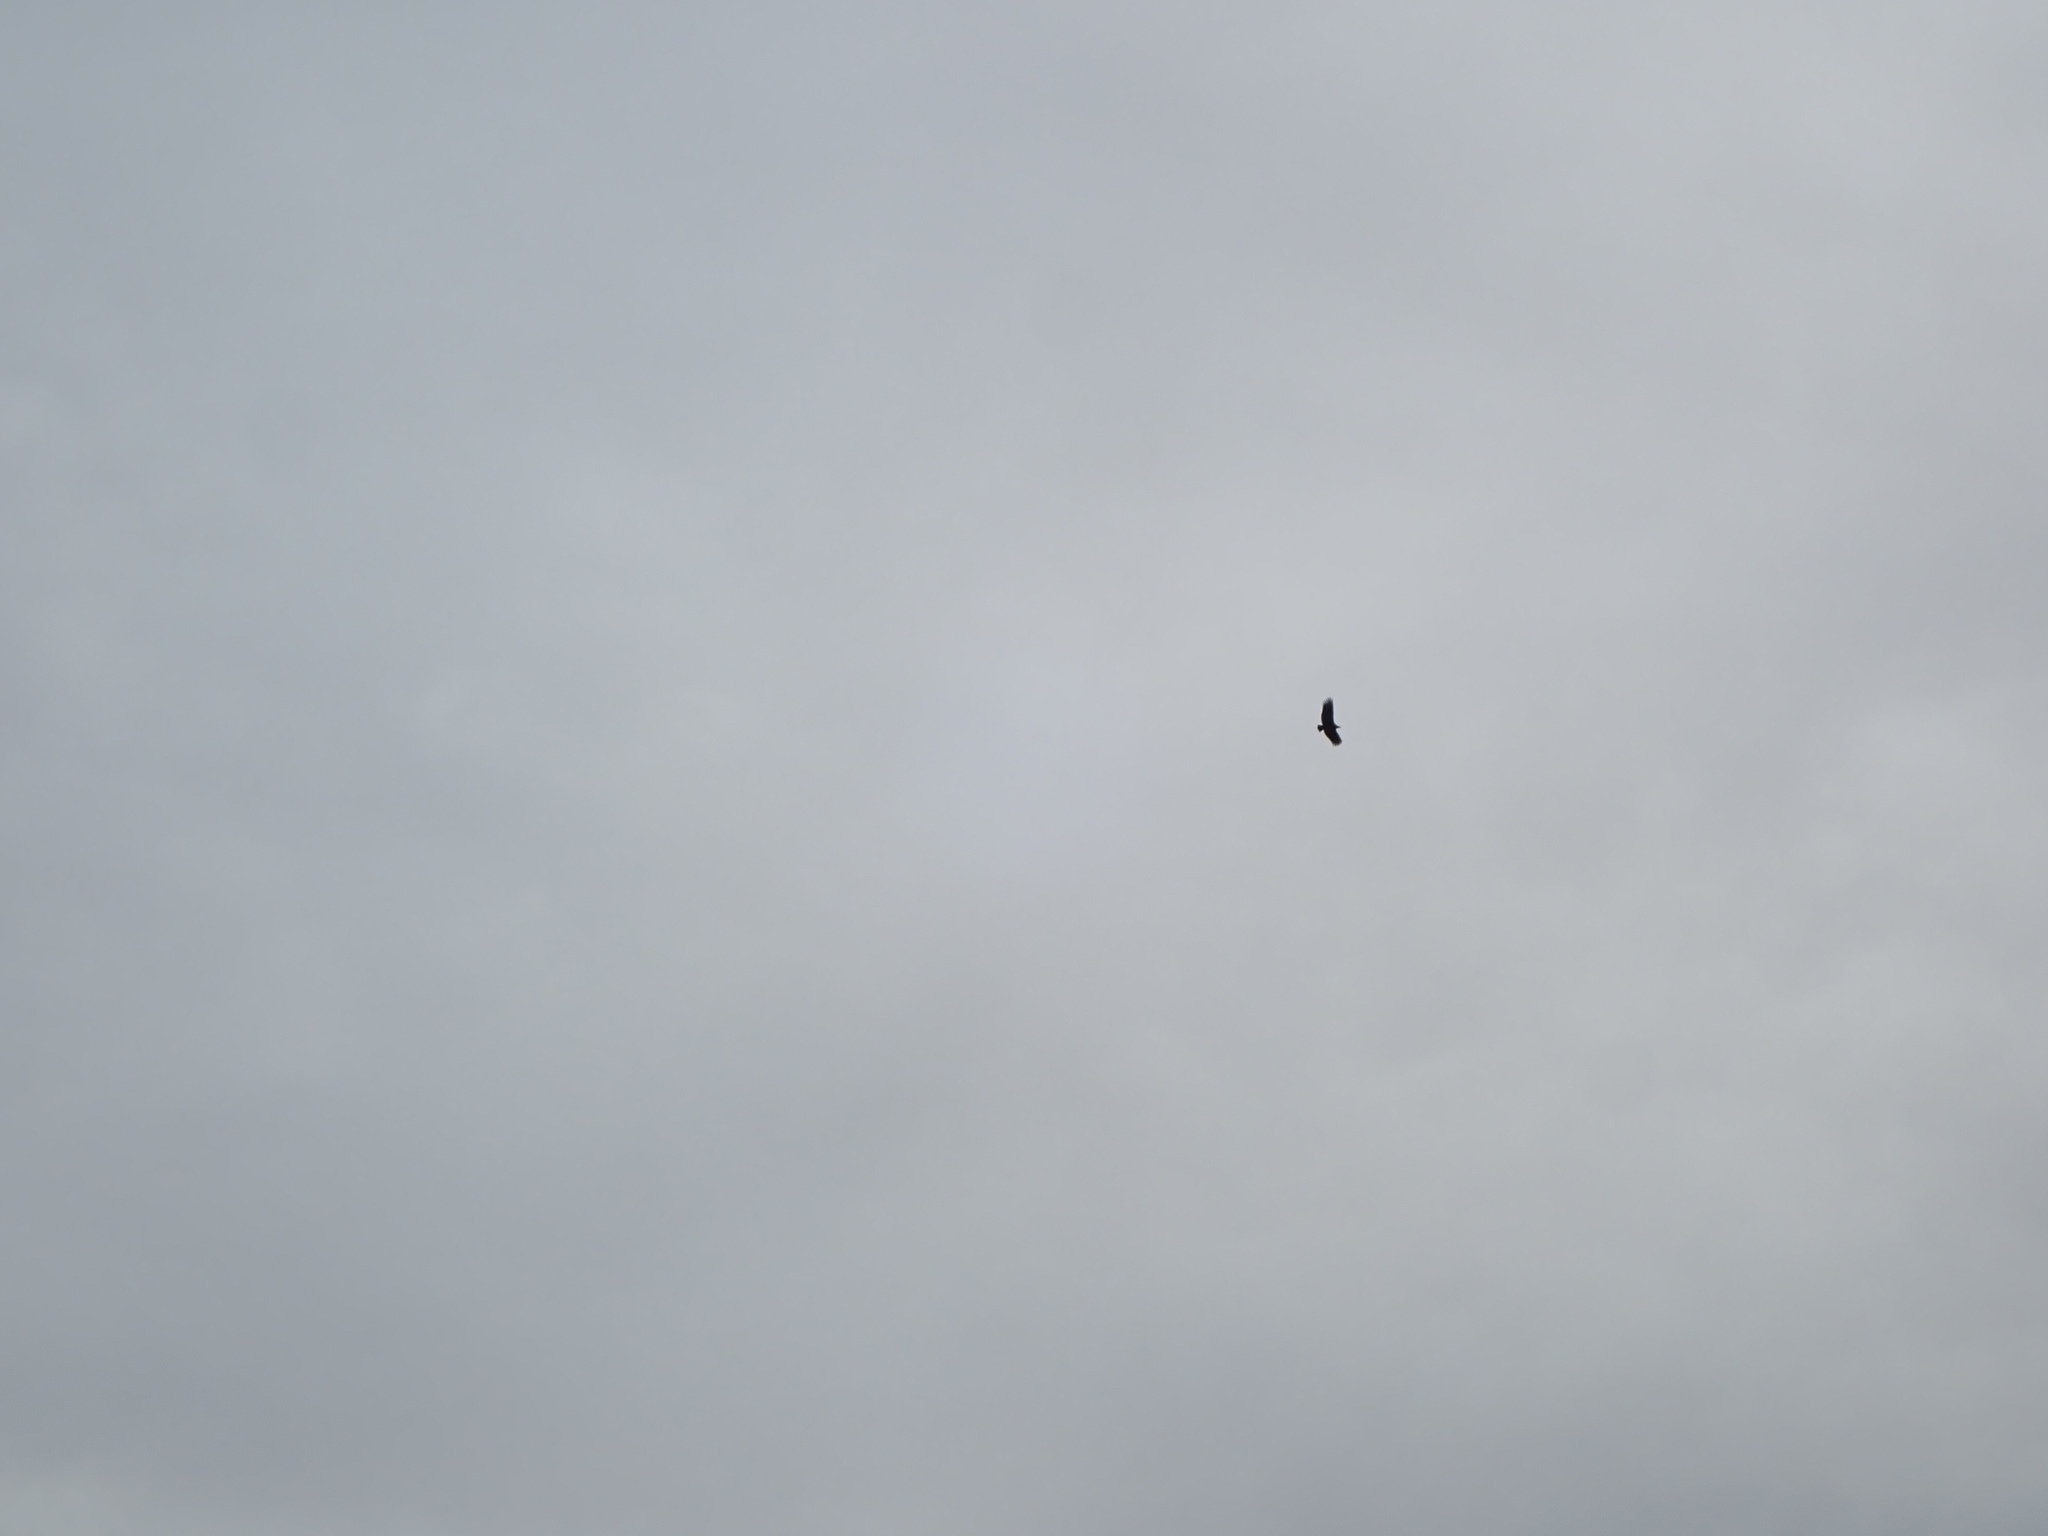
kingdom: Animalia
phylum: Chordata
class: Aves
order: Accipitriformes
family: Cathartidae
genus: Coragyps
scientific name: Coragyps atratus
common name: Black vulture
